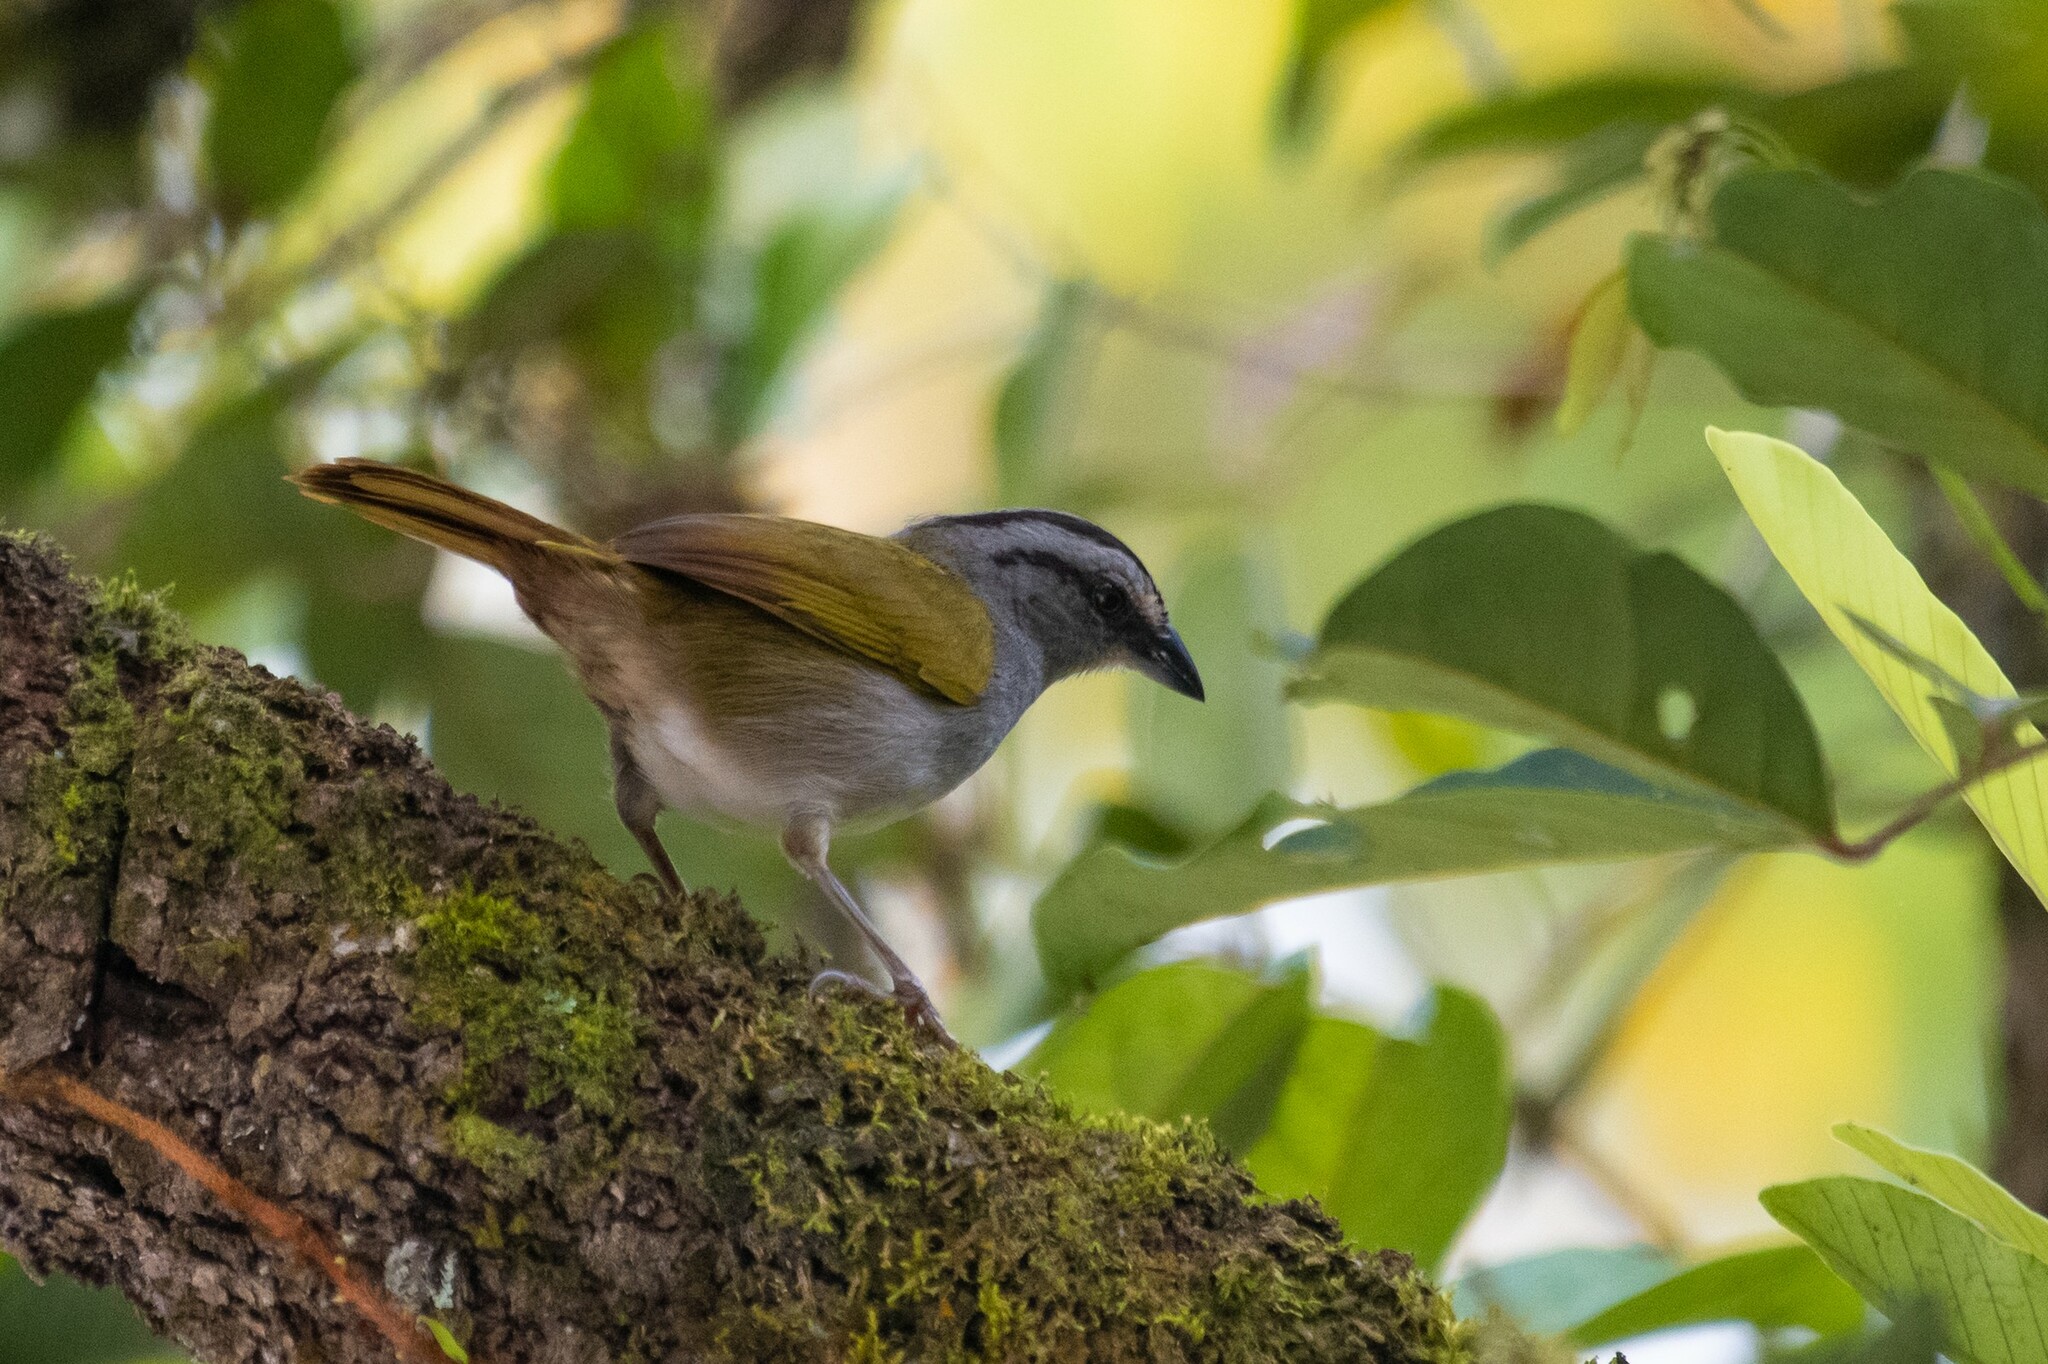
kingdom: Animalia
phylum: Chordata
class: Aves
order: Passeriformes
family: Passerellidae
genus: Arremonops
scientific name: Arremonops conirostris
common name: Black-striped sparrow
